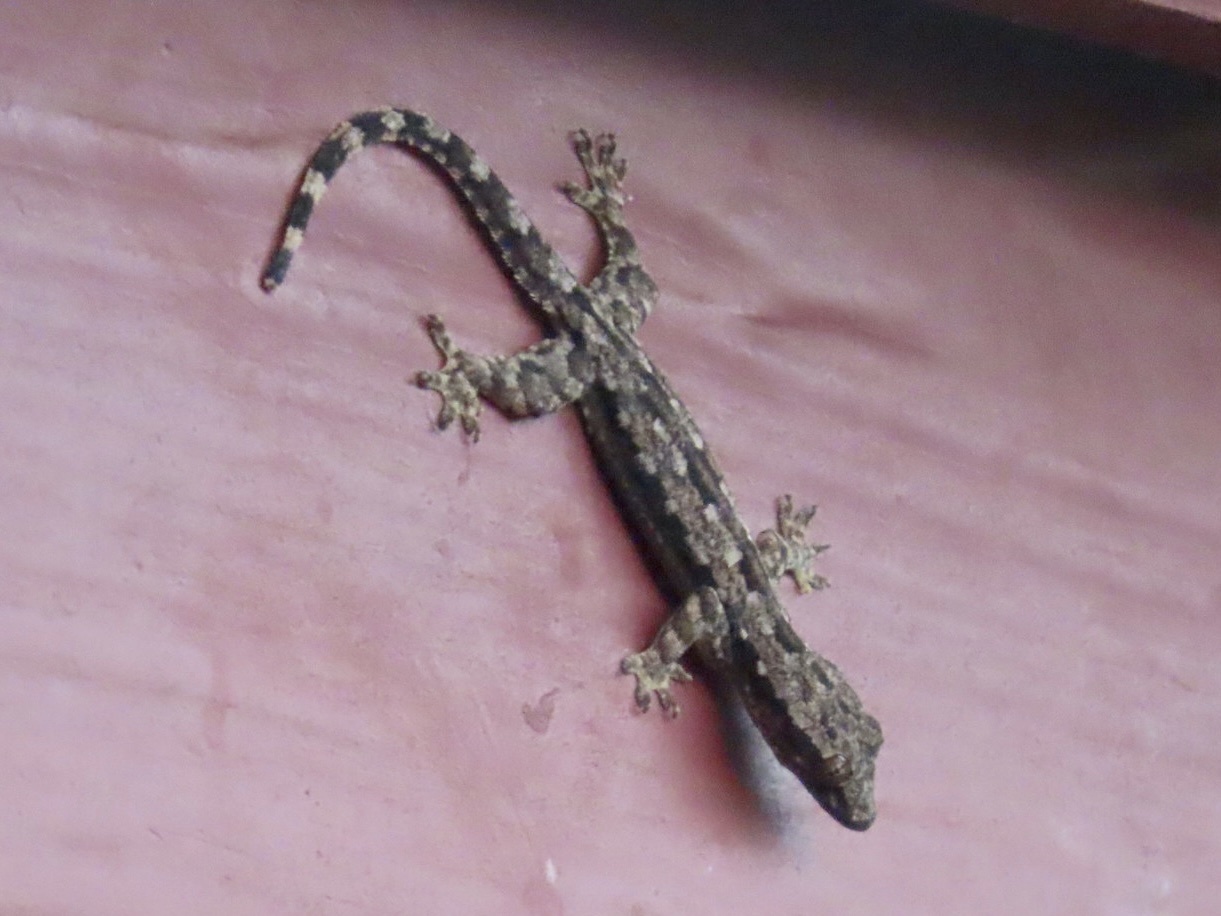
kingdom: Animalia
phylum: Chordata
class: Squamata
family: Gekkonidae
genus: Hemidactylus
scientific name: Hemidactylus platyurus
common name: Flat-tailed house gecko
